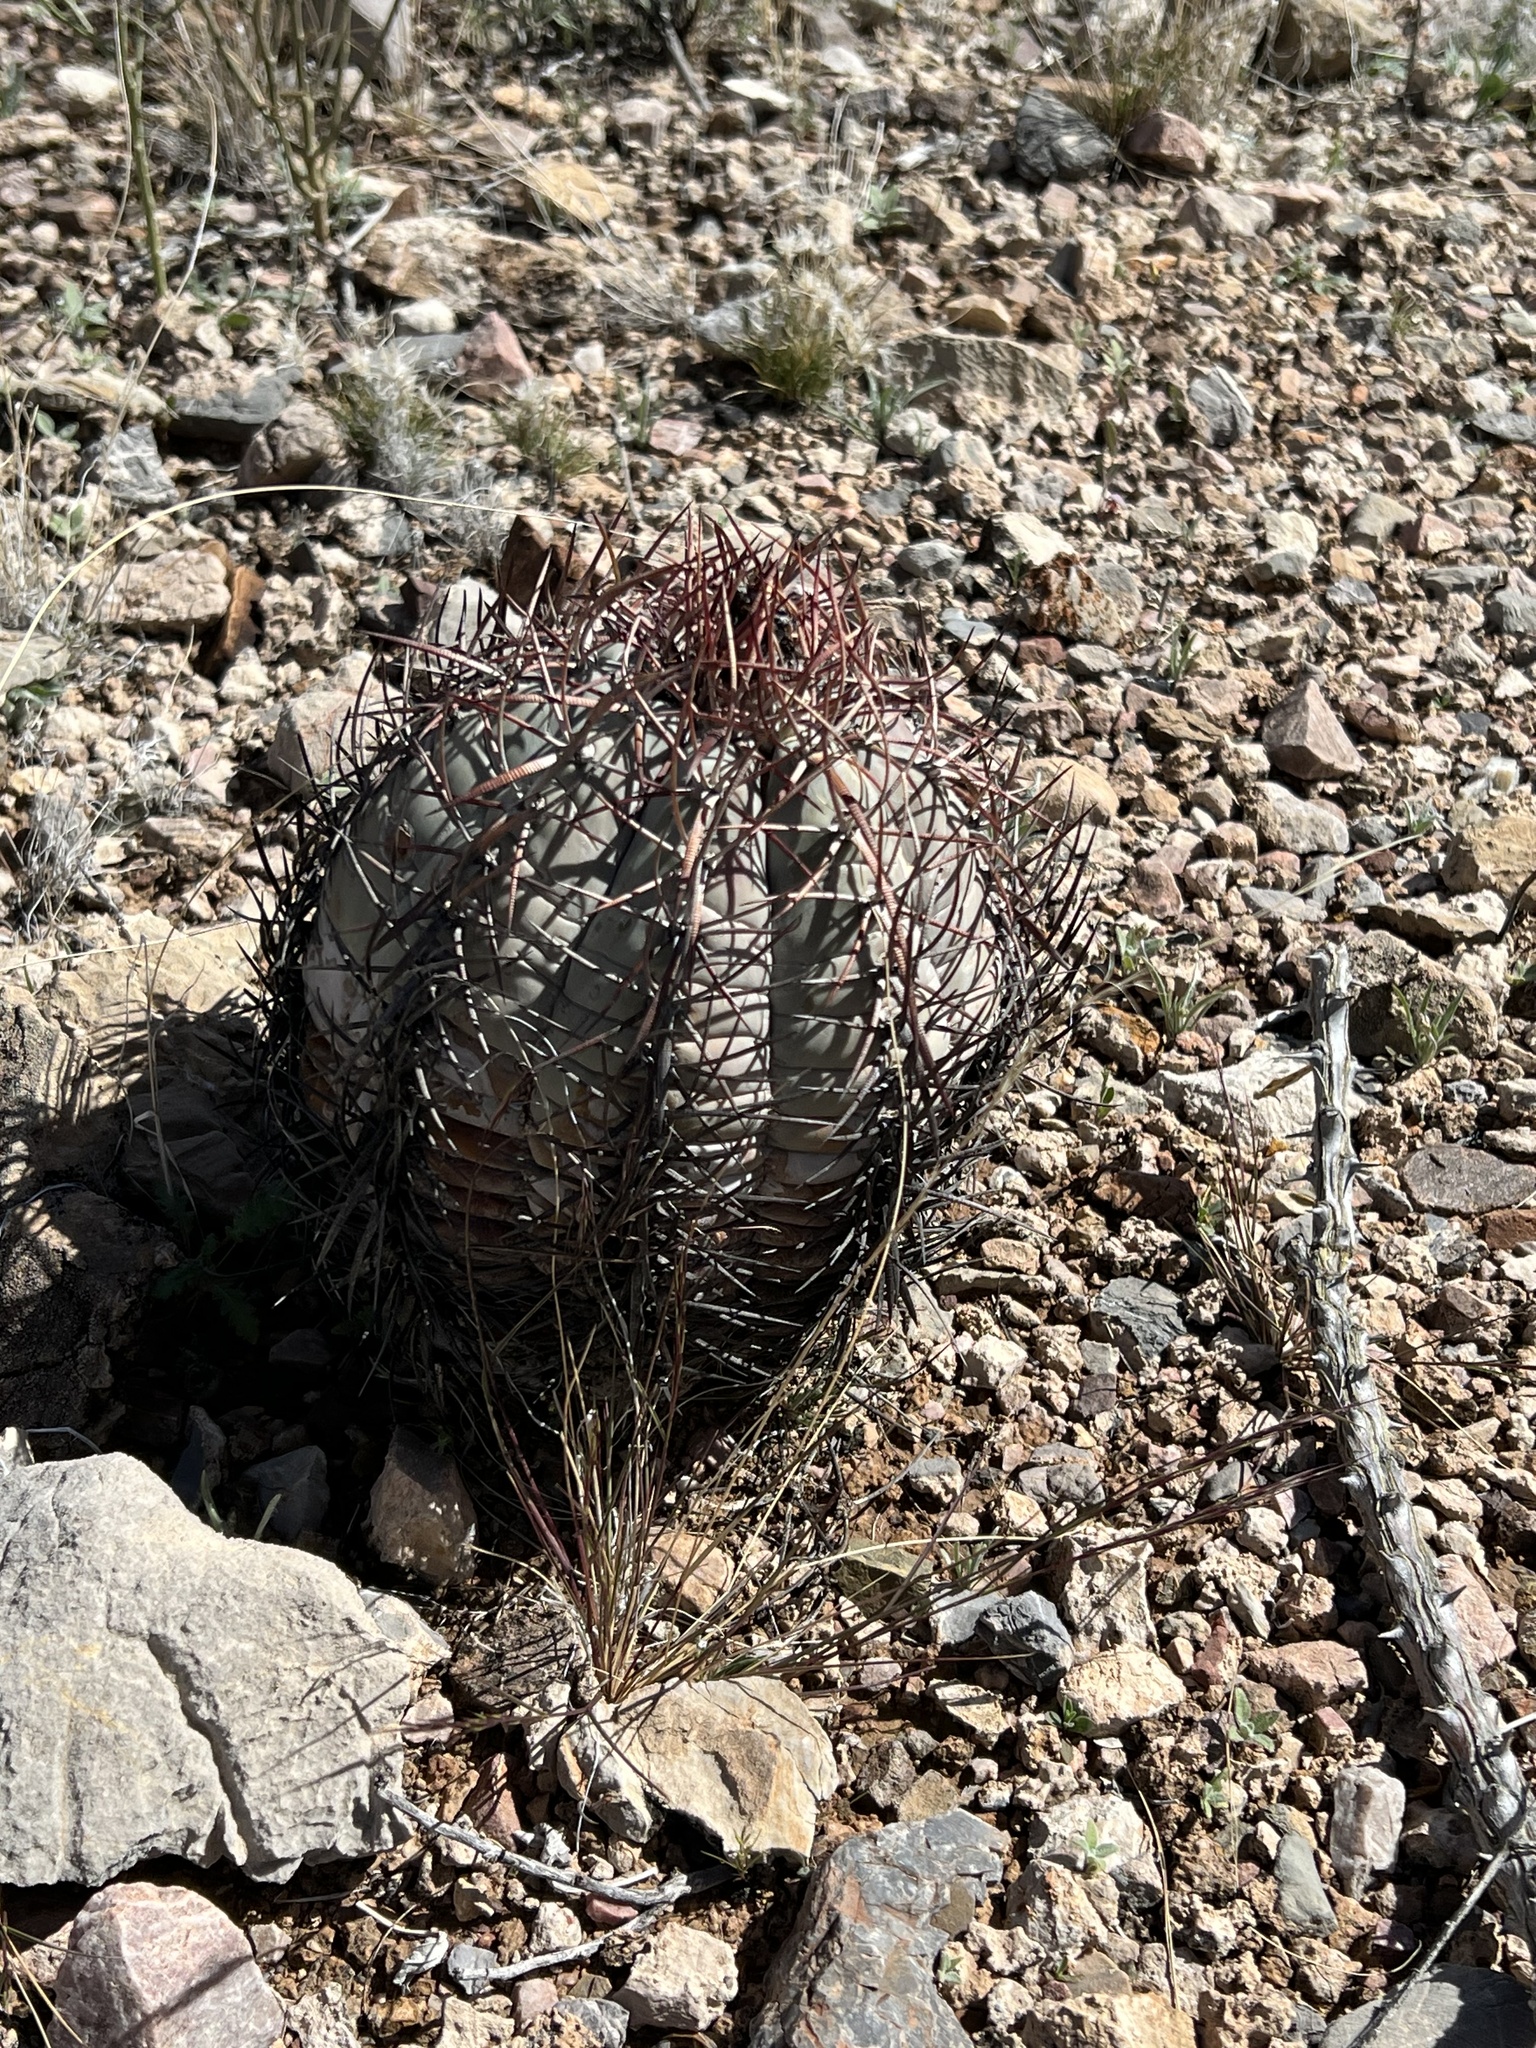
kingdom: Plantae
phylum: Tracheophyta
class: Magnoliopsida
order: Caryophyllales
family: Cactaceae
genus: Echinocactus
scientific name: Echinocactus horizonthalonius
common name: Devilshead
